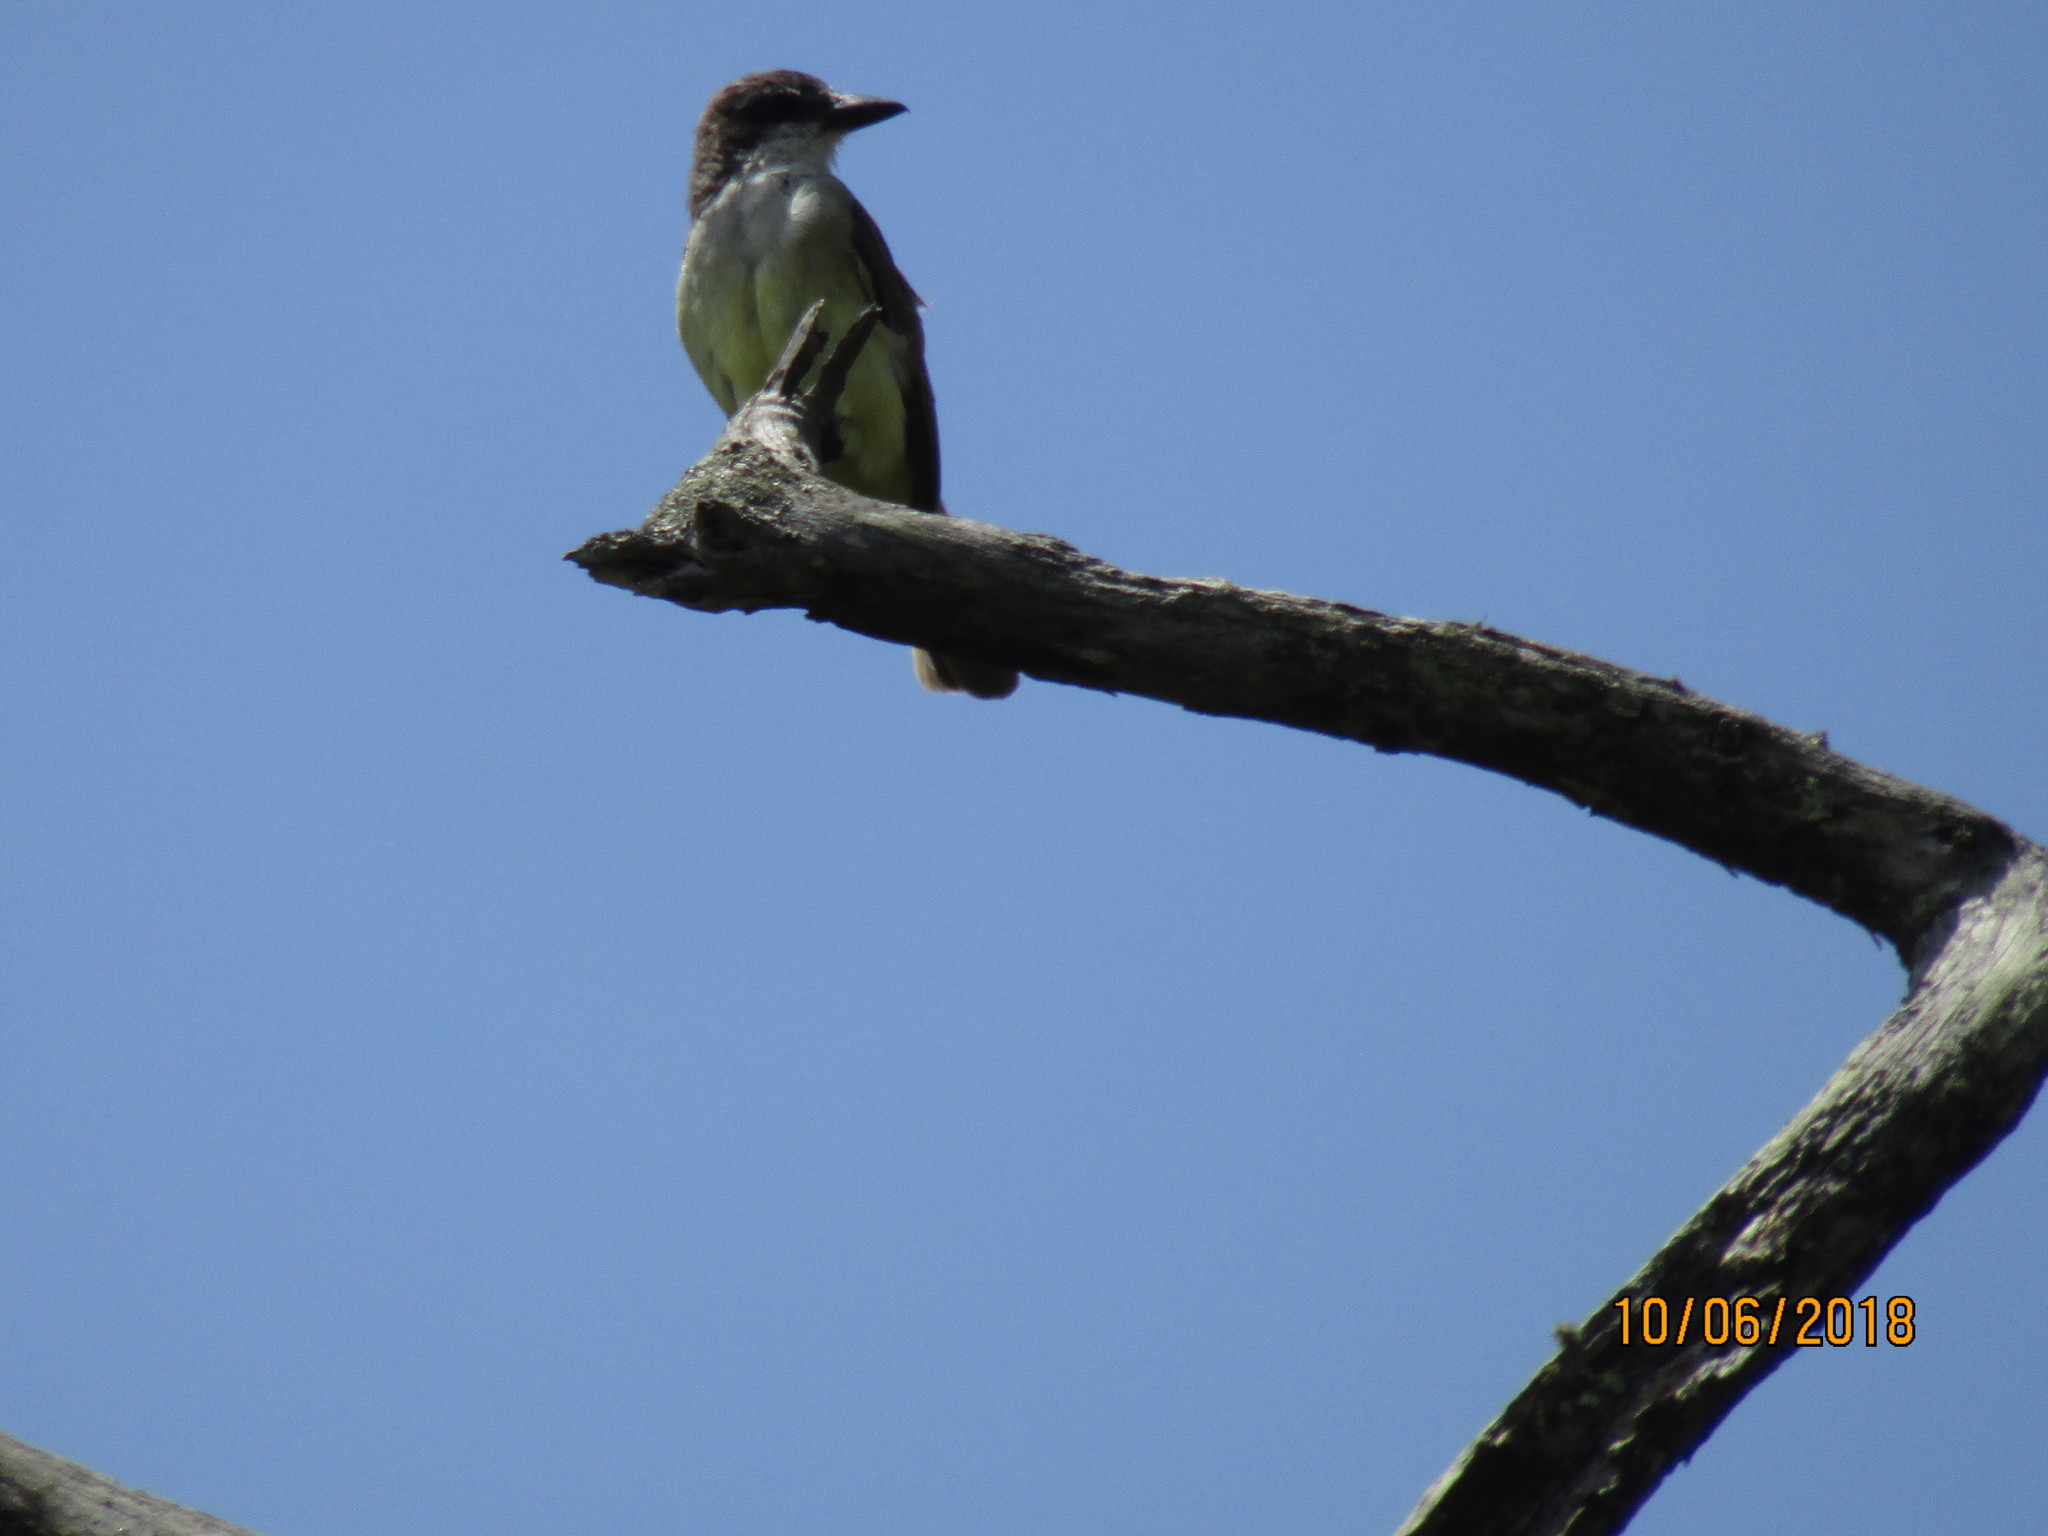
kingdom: Animalia
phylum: Chordata
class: Aves
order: Passeriformes
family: Tyrannidae
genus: Tyrannus
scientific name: Tyrannus crassirostris
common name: Thick-billed kingbird
